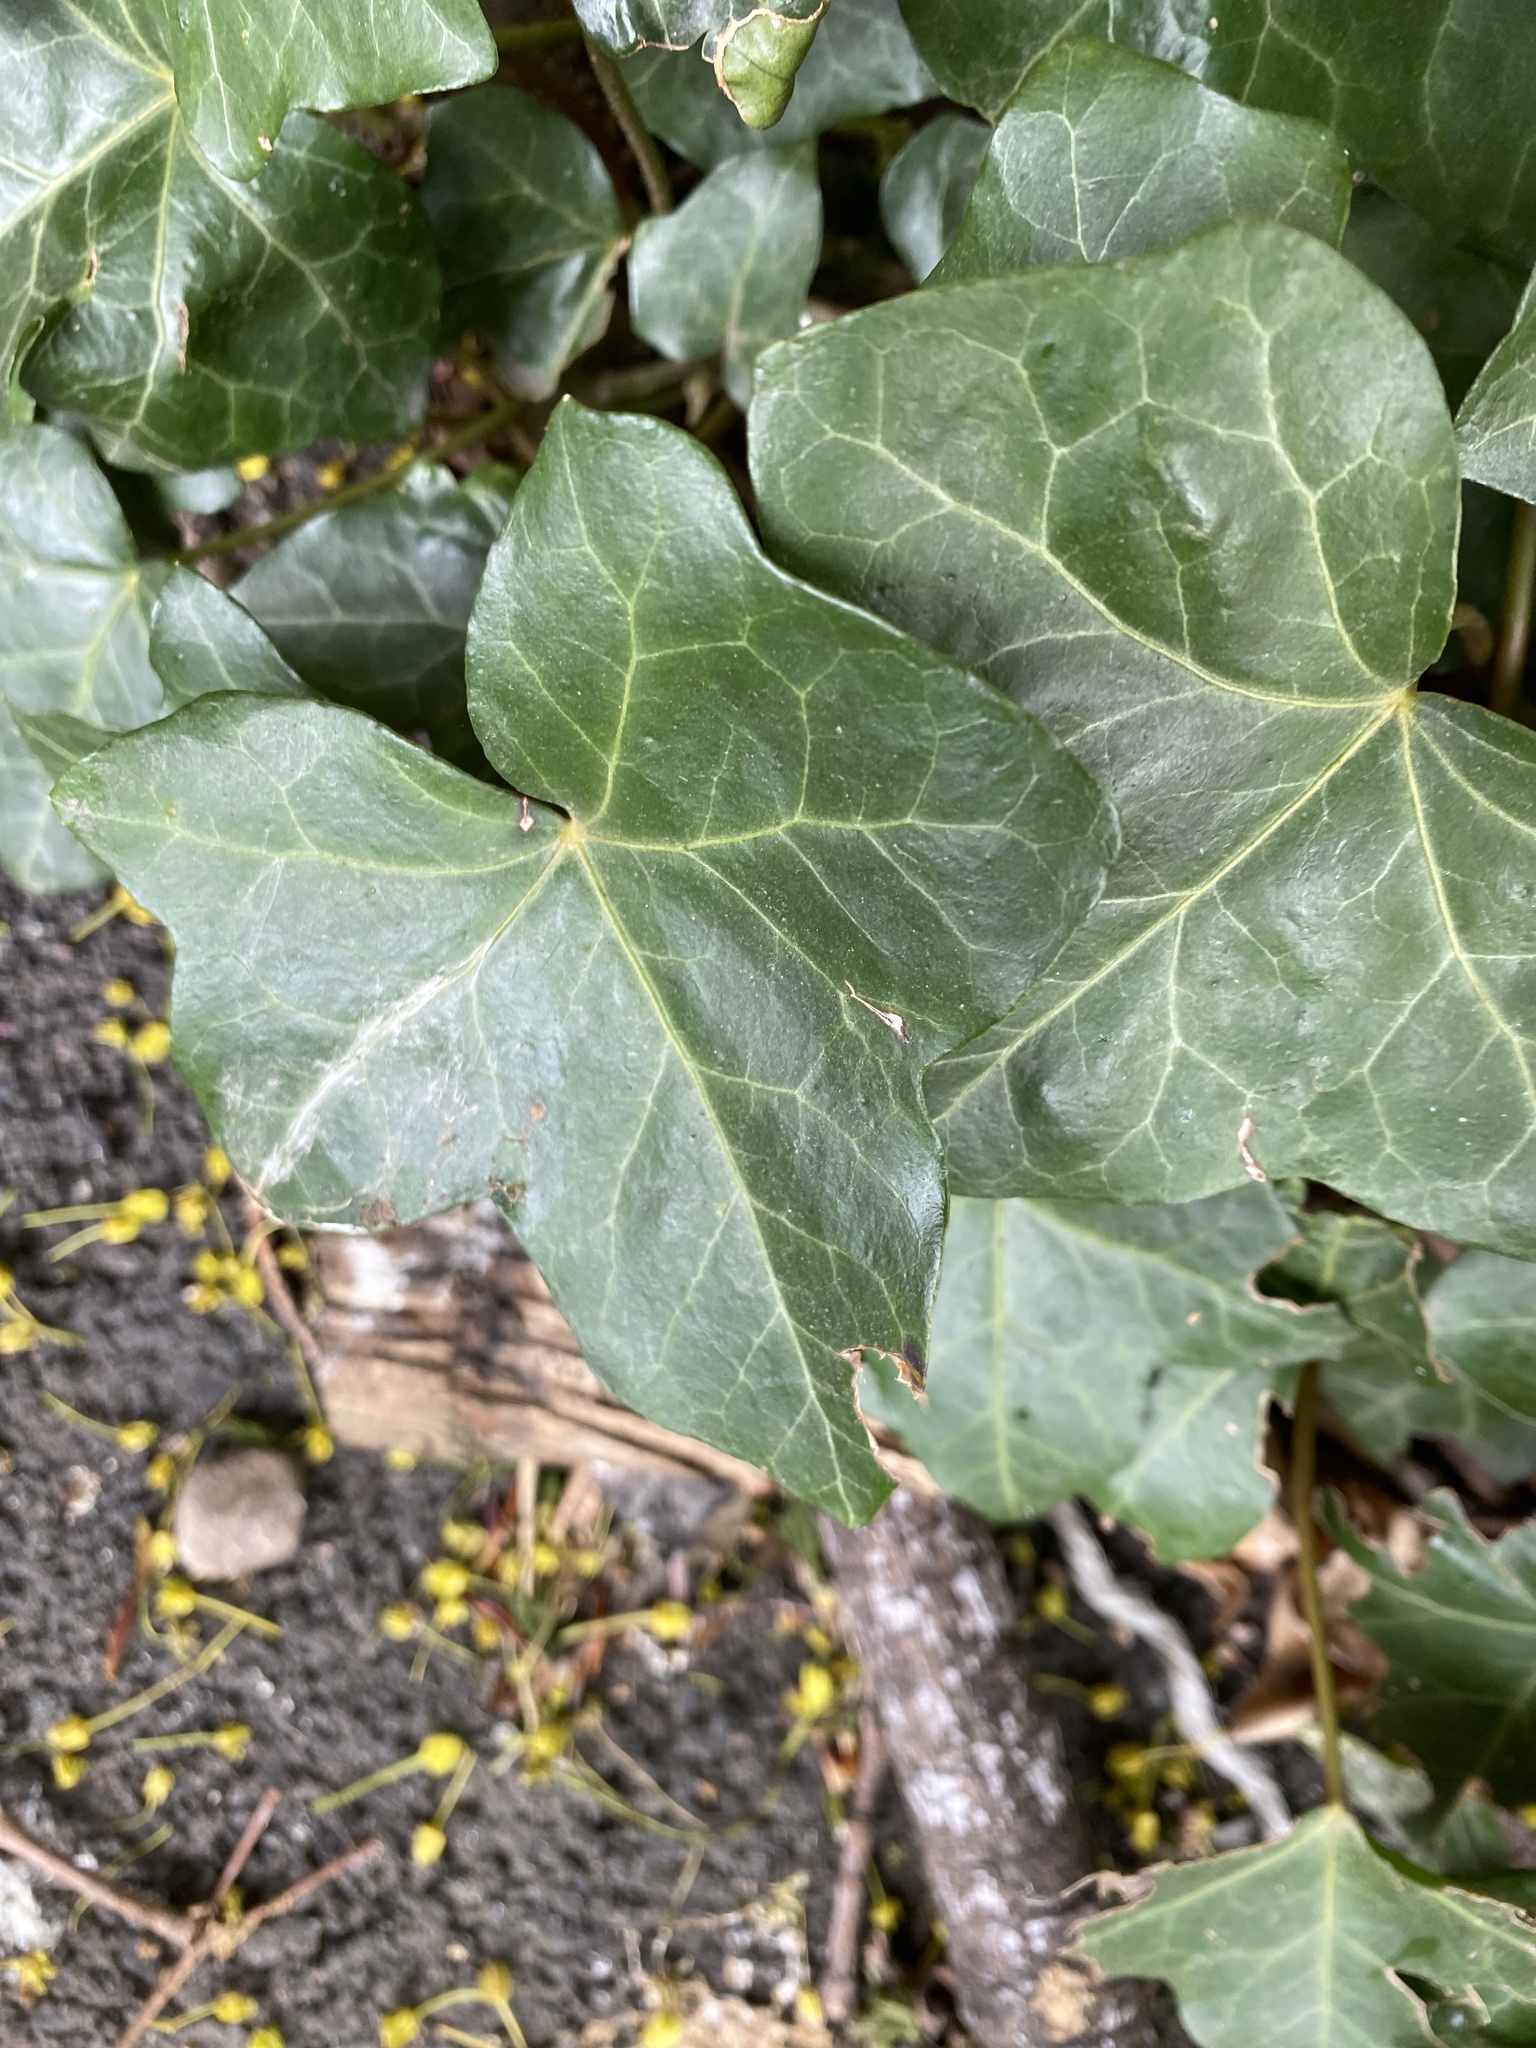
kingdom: Plantae
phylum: Tracheophyta
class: Magnoliopsida
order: Apiales
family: Araliaceae
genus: Hedera
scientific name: Hedera helix
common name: Ivy
